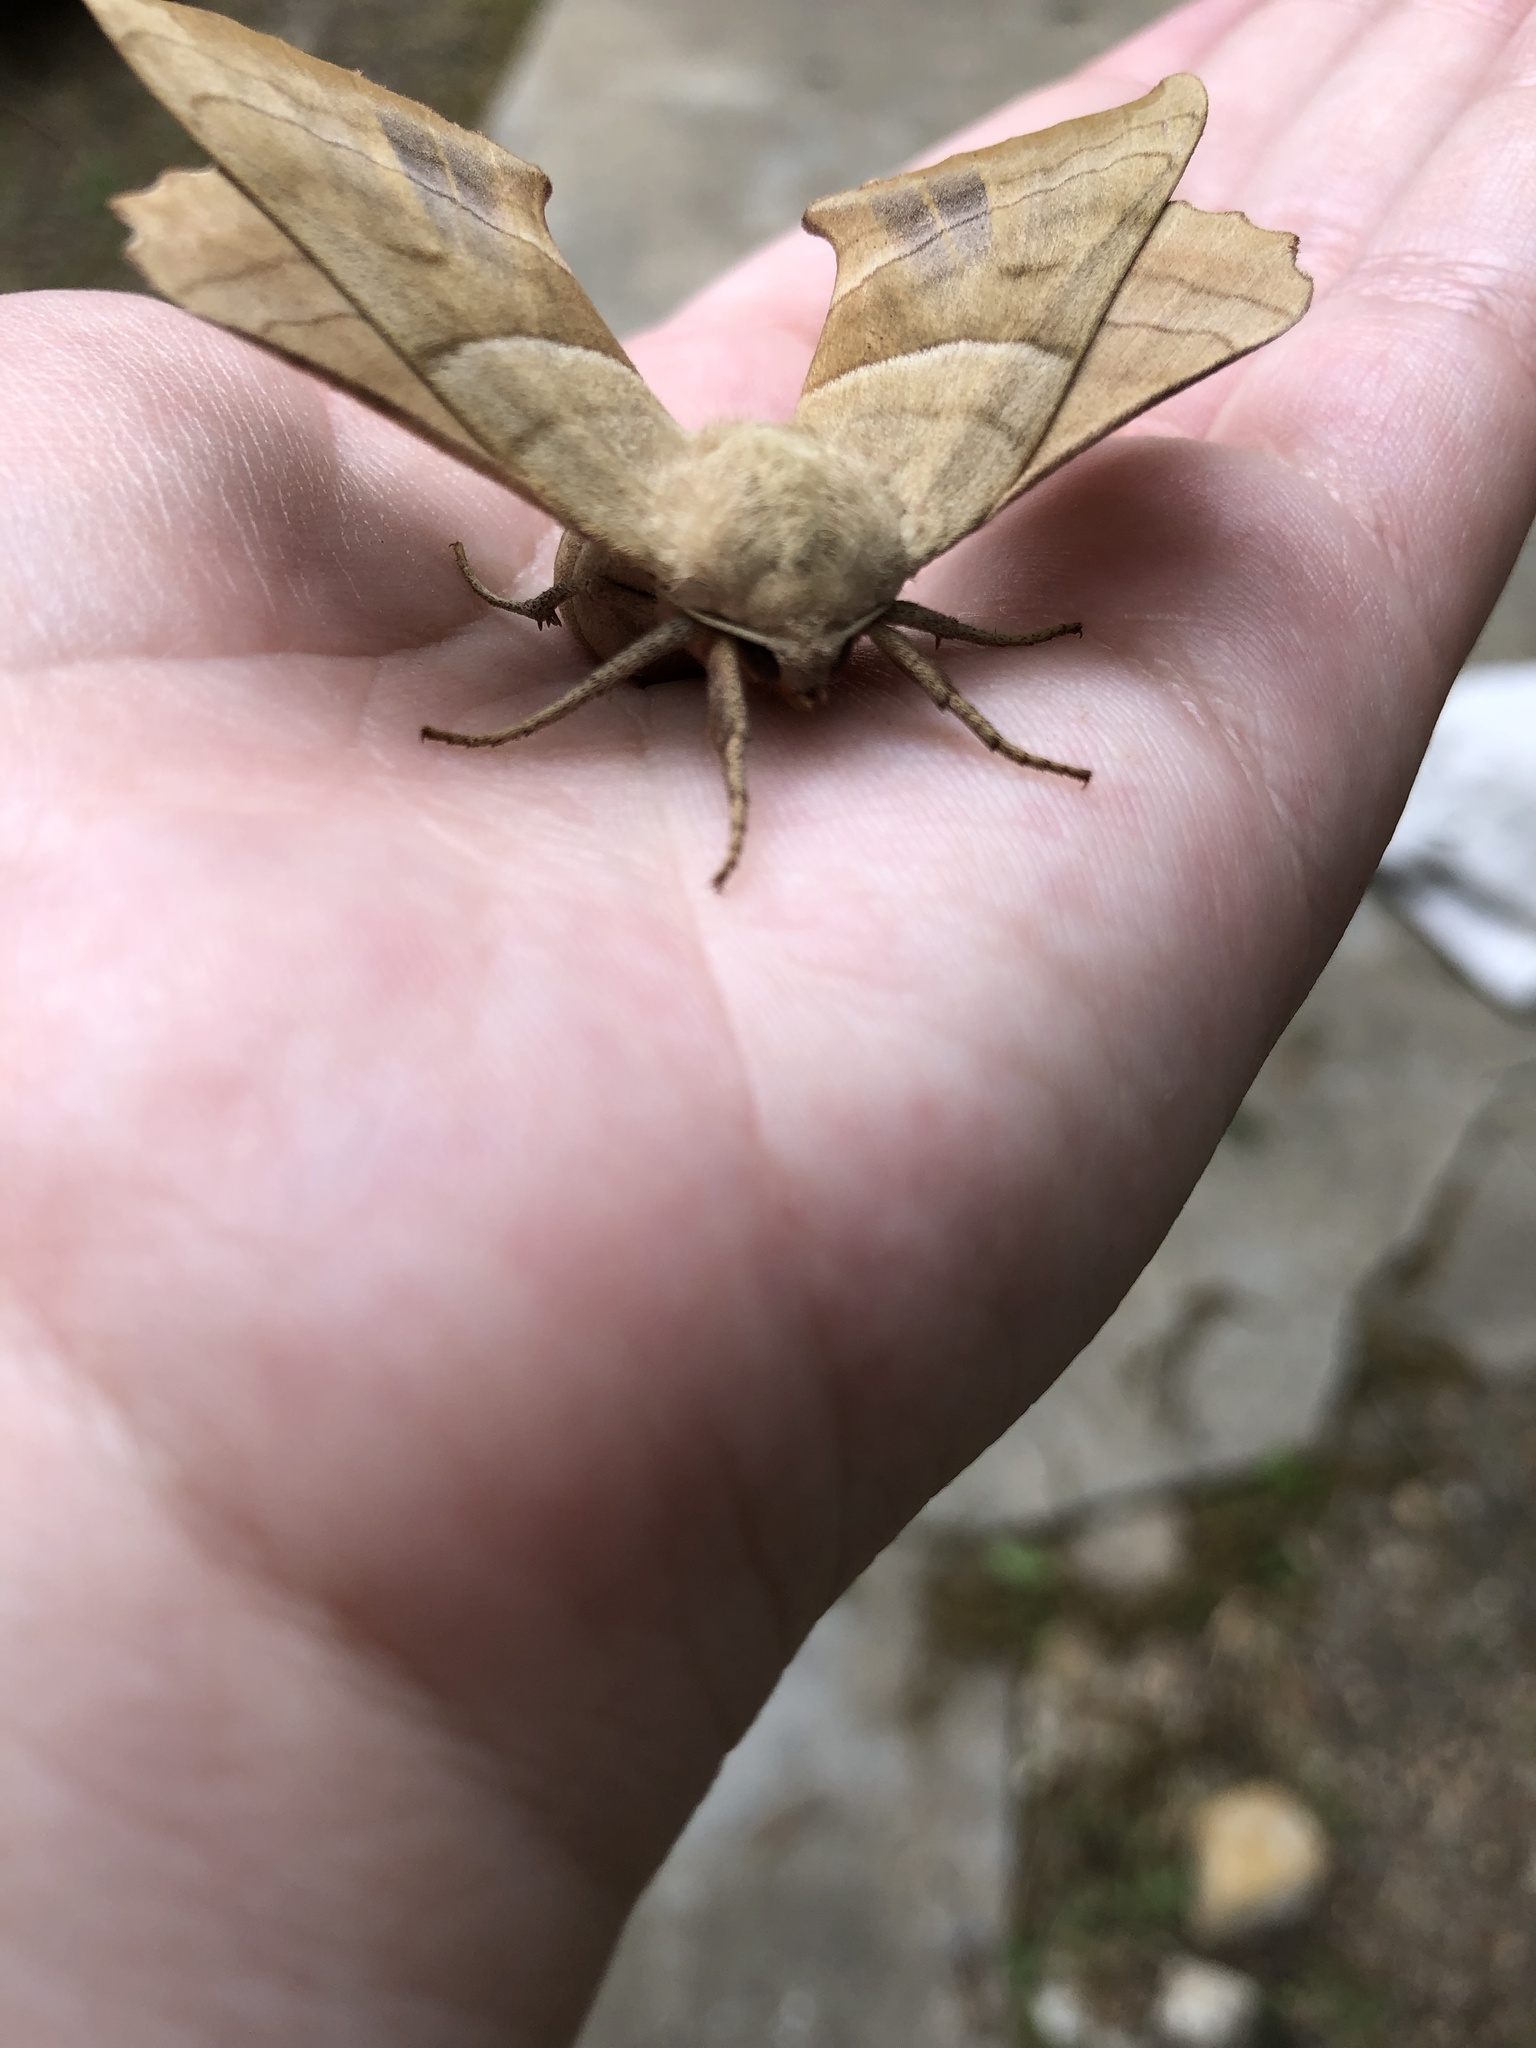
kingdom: Animalia
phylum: Arthropoda
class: Insecta
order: Lepidoptera
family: Sphingidae
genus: Amorpha
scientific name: Amorpha juglandis
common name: Walnut sphinx
